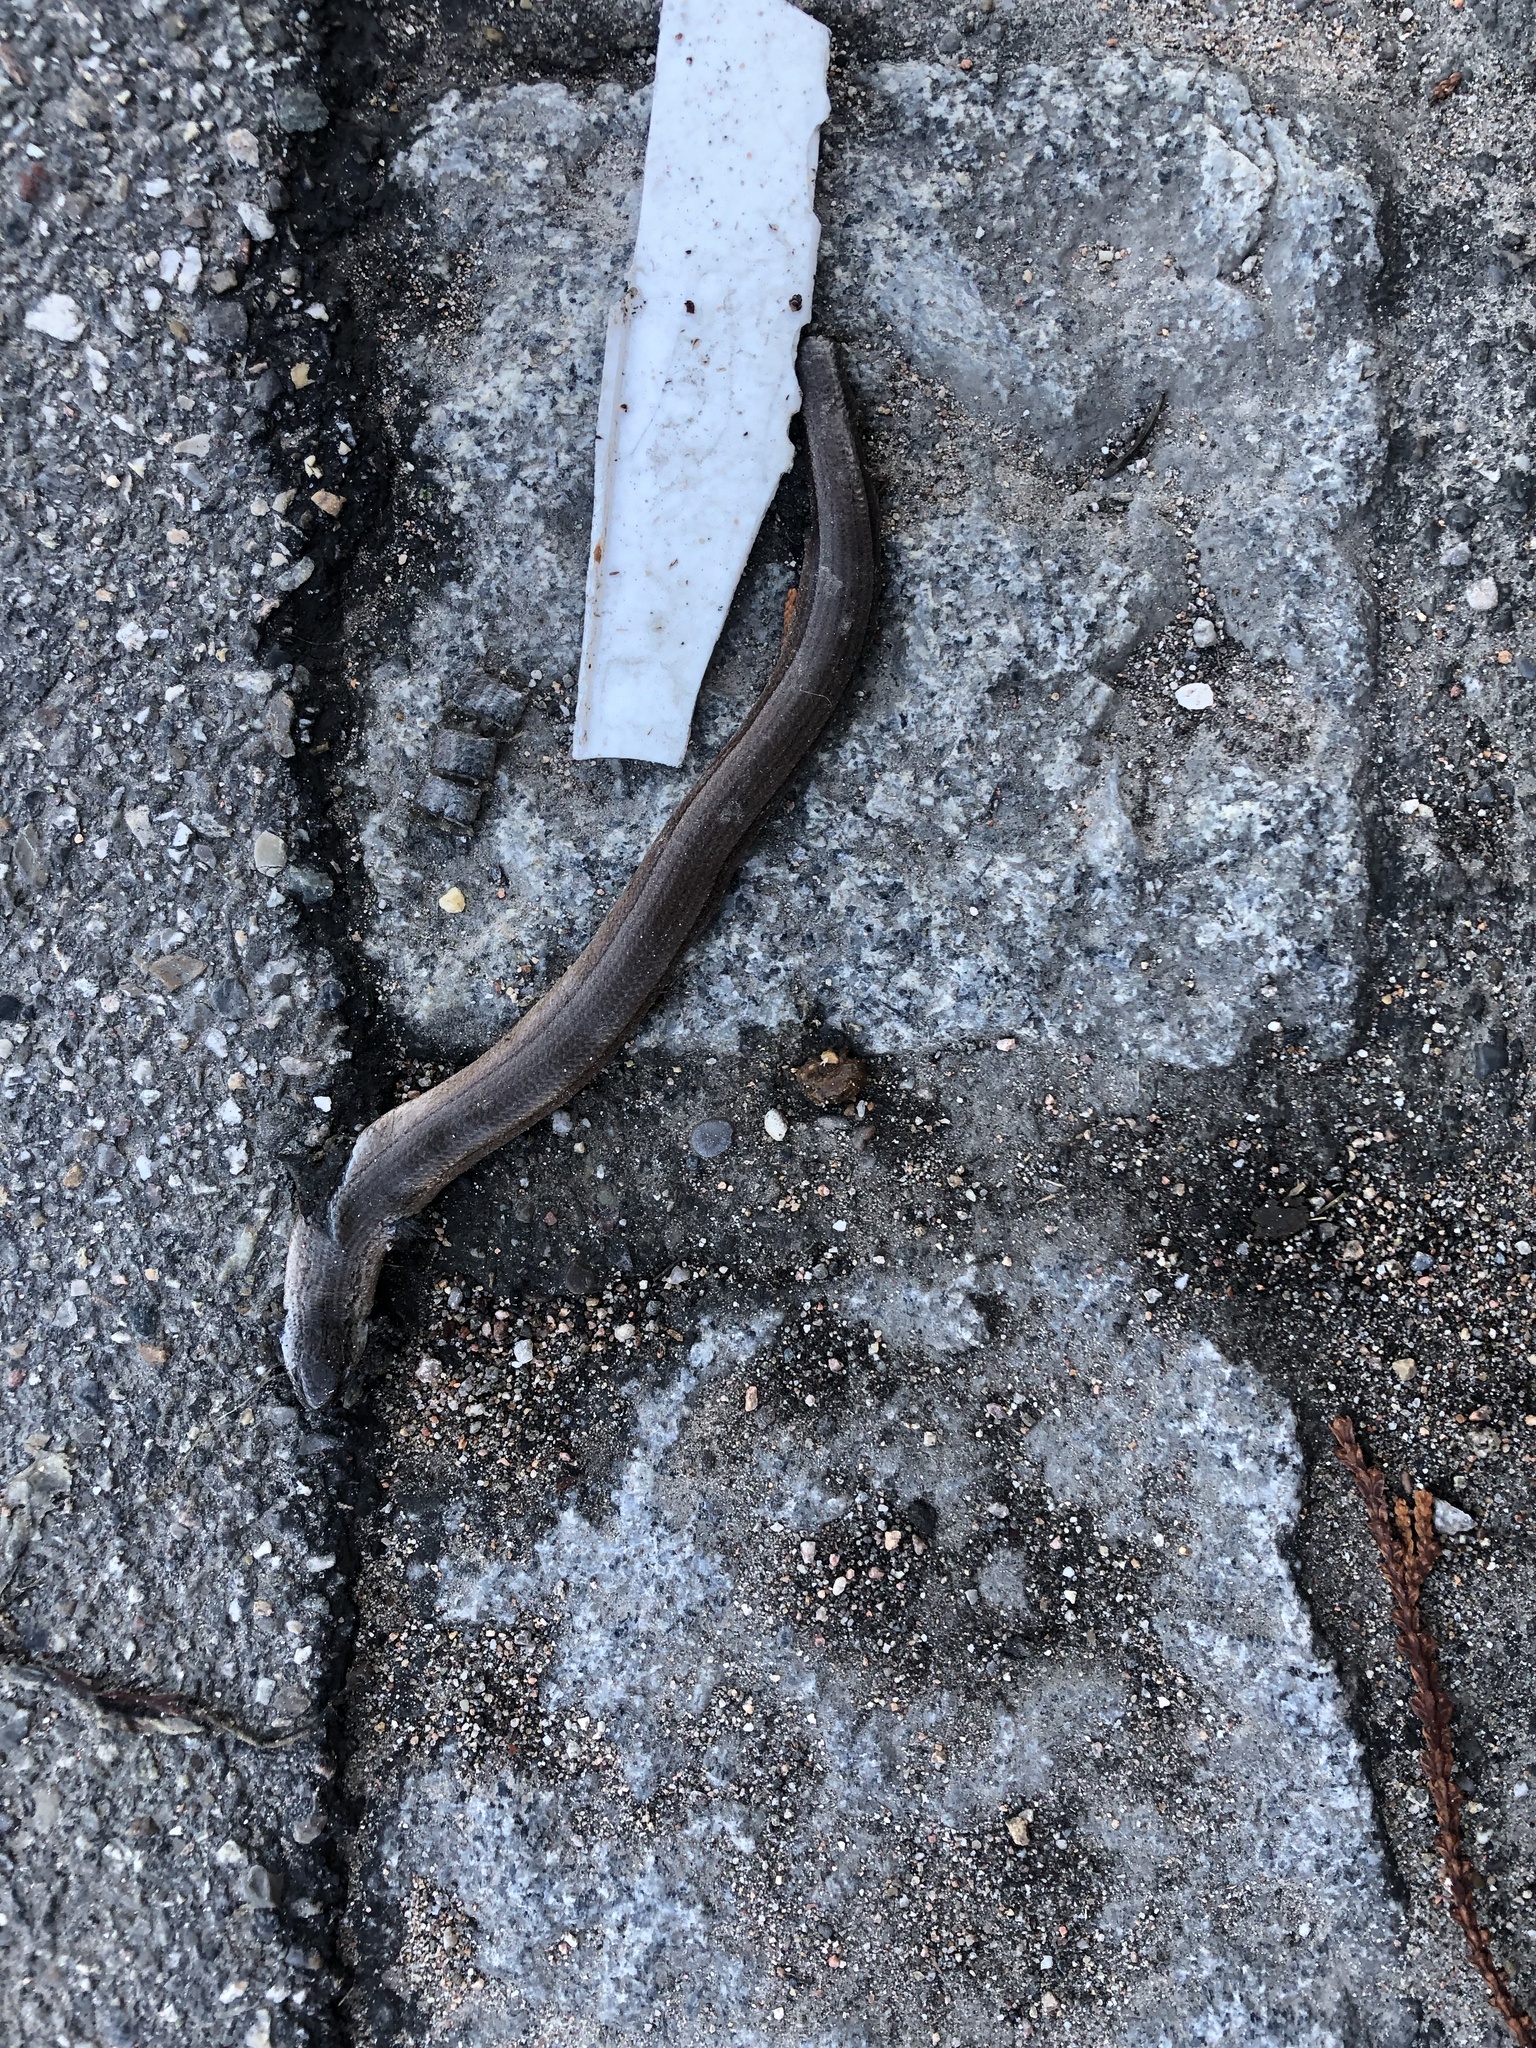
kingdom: Animalia
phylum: Chordata
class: Squamata
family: Anguidae
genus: Anguis
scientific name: Anguis fragilis
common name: Slow worm
